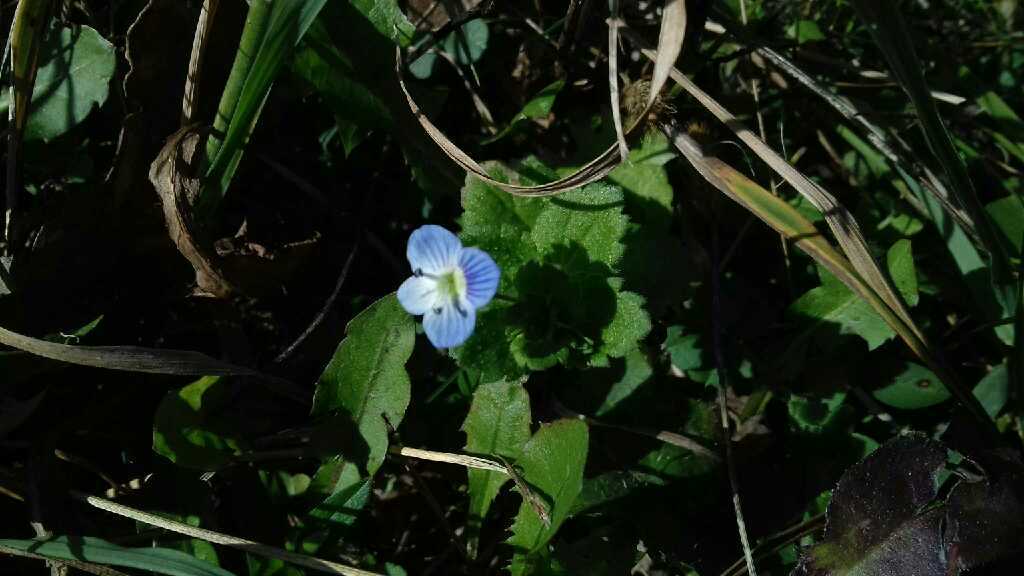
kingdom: Plantae
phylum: Tracheophyta
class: Magnoliopsida
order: Lamiales
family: Plantaginaceae
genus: Veronica
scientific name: Veronica persica
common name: Common field-speedwell
